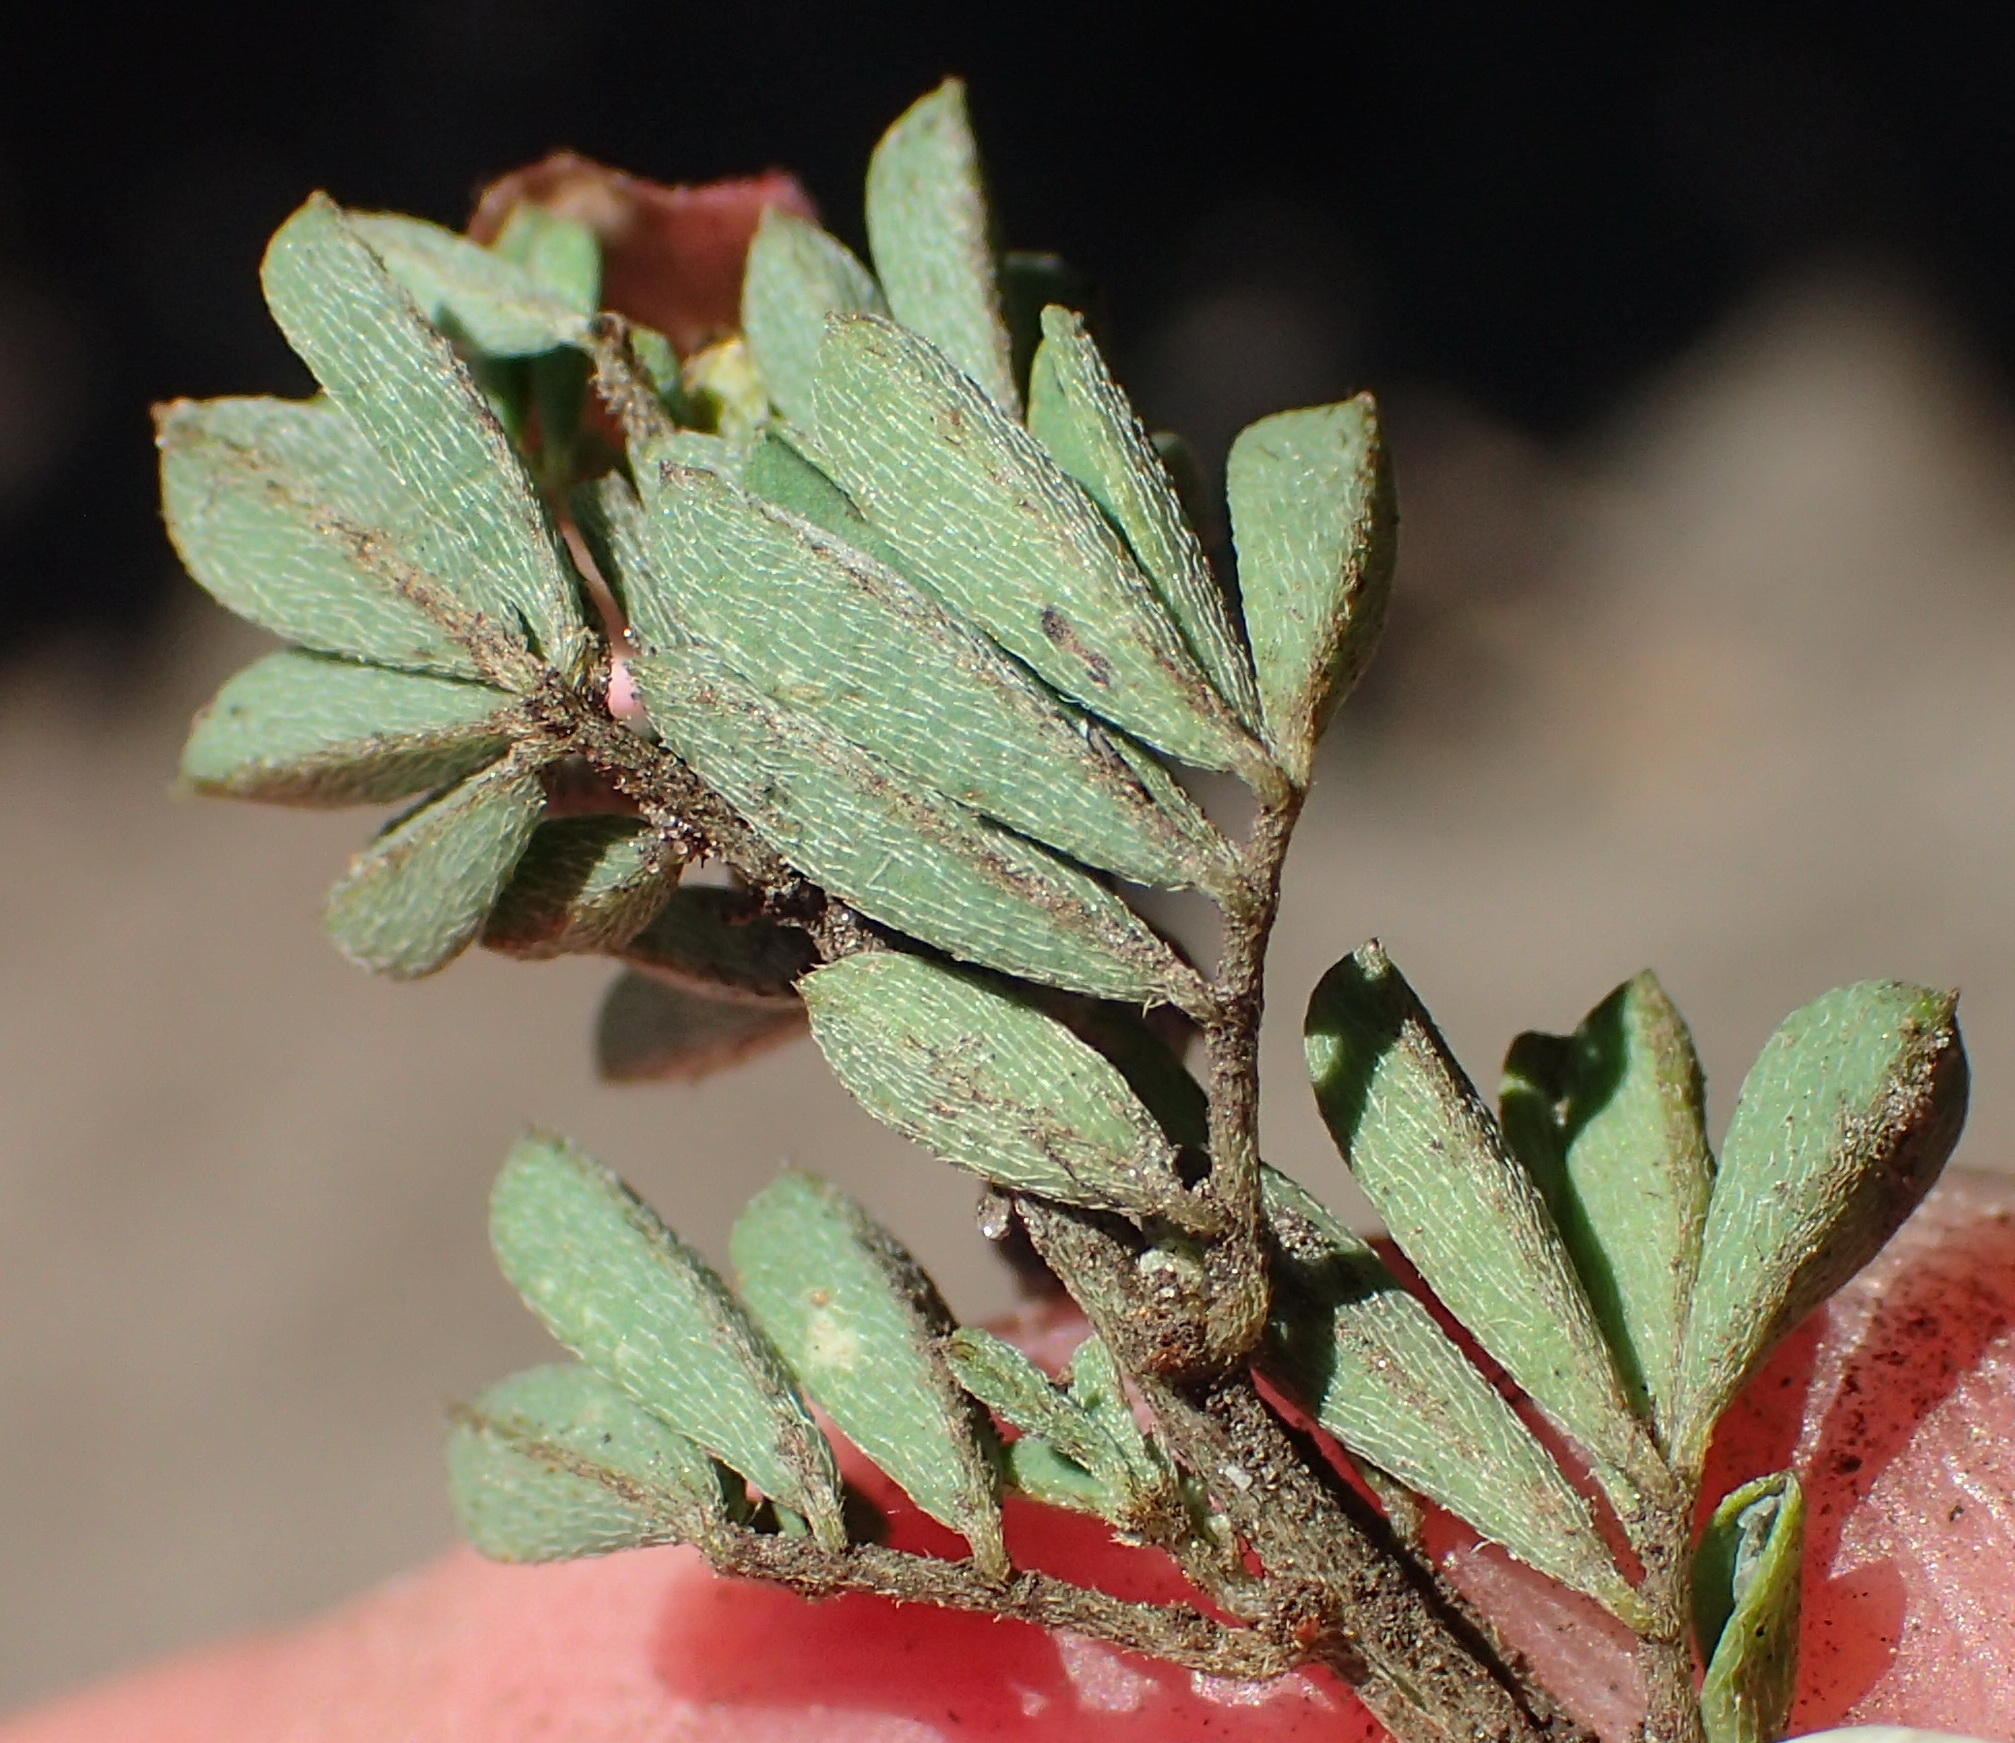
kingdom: Plantae
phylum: Tracheophyta
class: Magnoliopsida
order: Fabales
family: Fabaceae
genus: Indigofera
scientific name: Indigofera stricta
